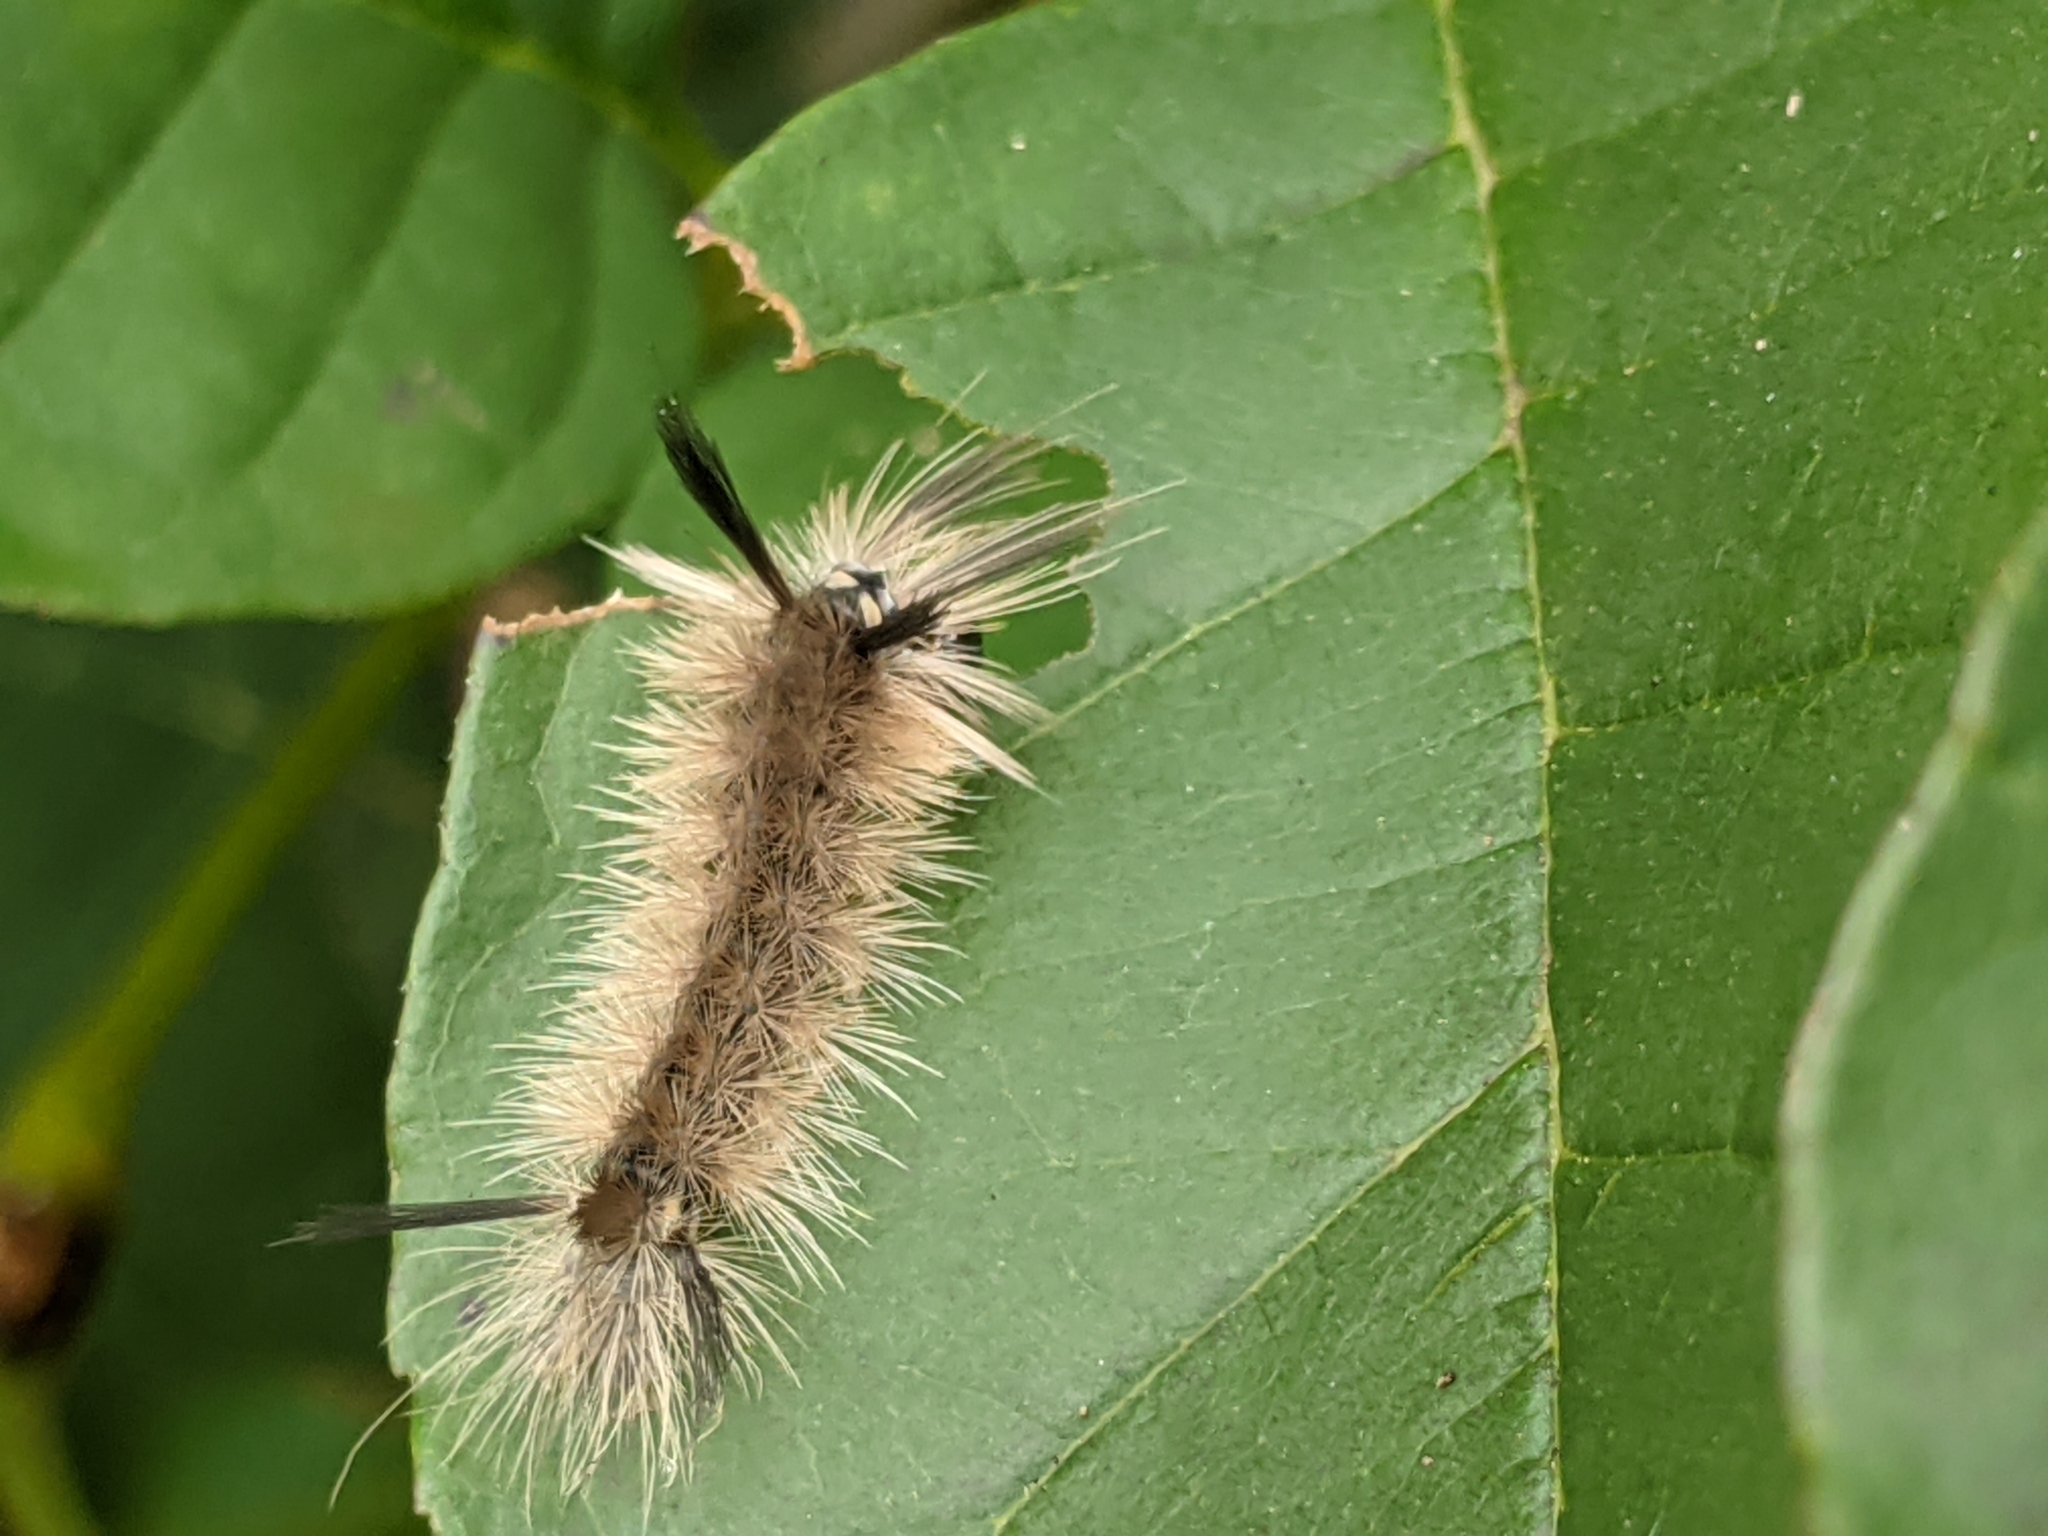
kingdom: Animalia
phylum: Arthropoda
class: Insecta
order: Lepidoptera
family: Erebidae
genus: Halysidota
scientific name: Halysidota tessellaris
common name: Banded tussock moth
